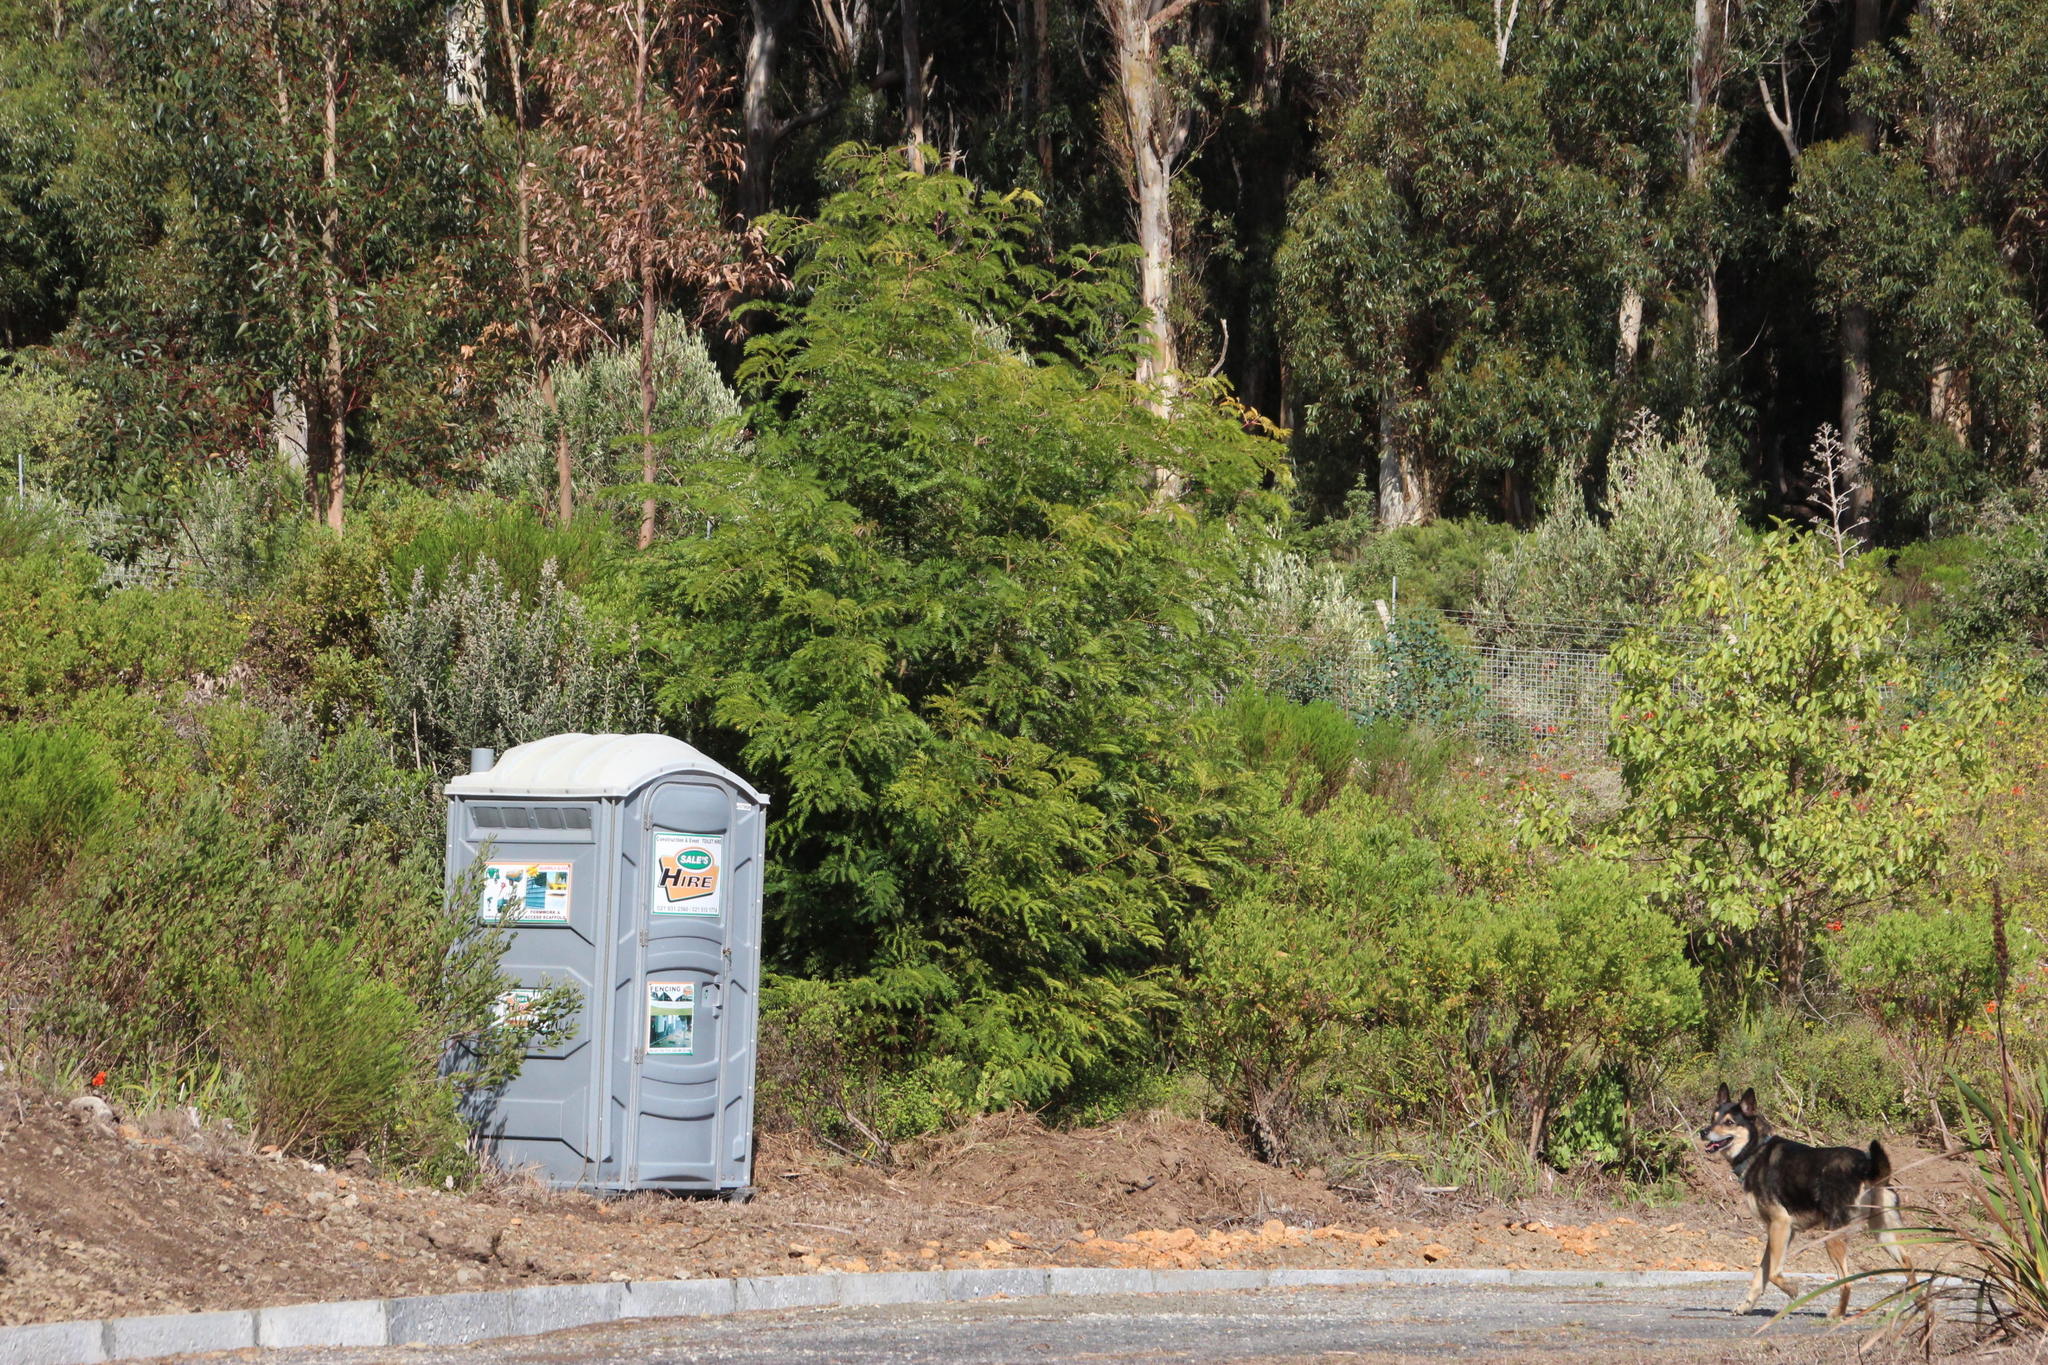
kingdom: Plantae
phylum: Tracheophyta
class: Magnoliopsida
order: Fabales
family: Fabaceae
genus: Acacia
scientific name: Acacia elata
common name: Cedar wattle
